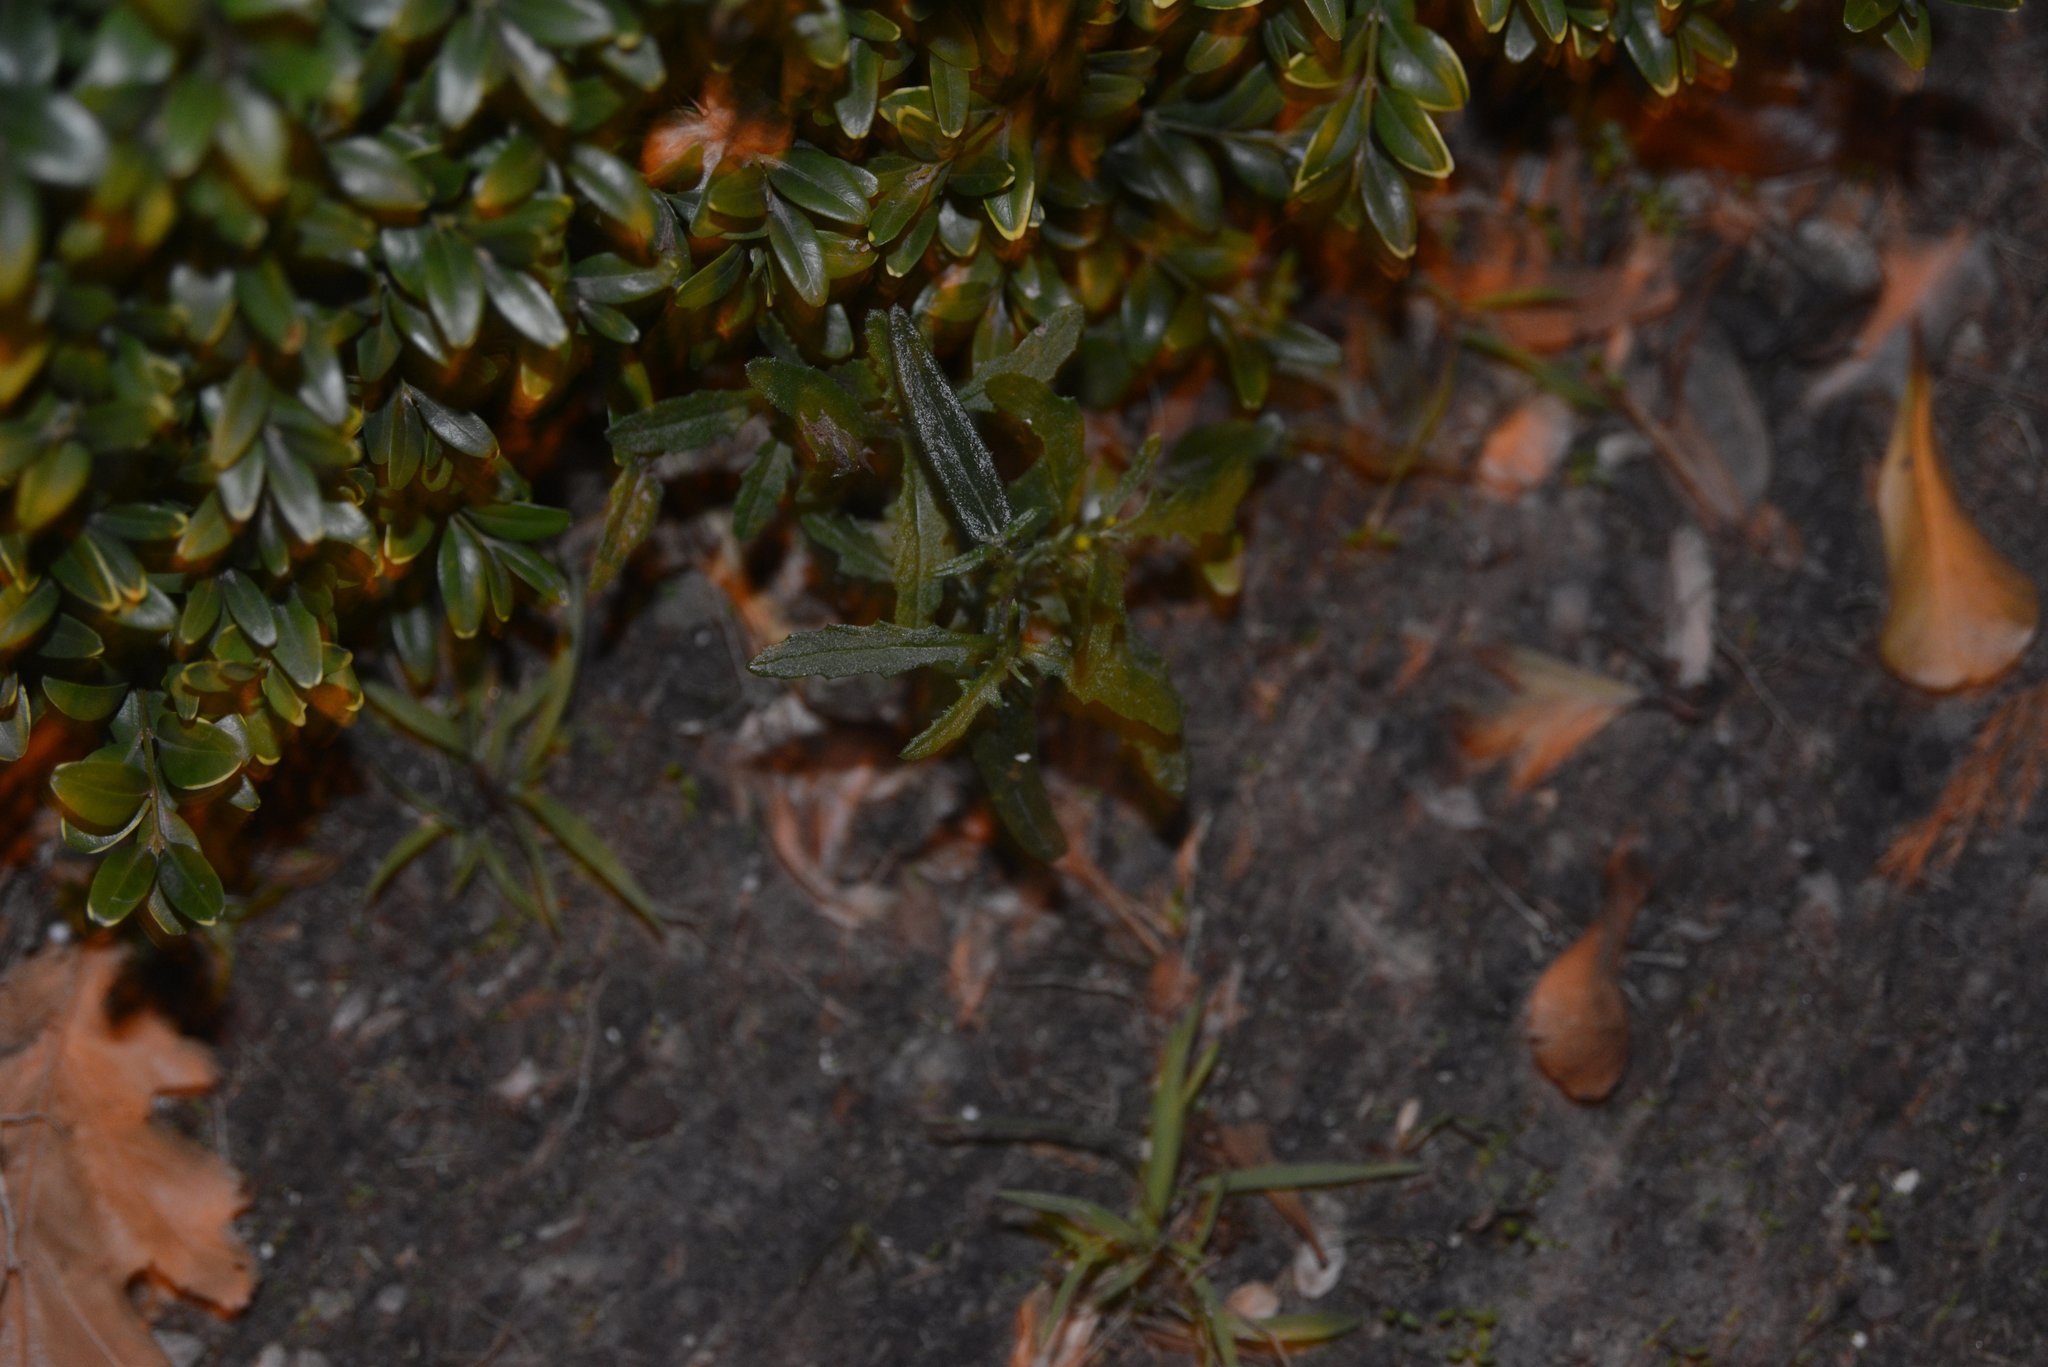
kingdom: Plantae
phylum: Tracheophyta
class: Magnoliopsida
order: Asterales
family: Asteraceae
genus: Senecio
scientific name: Senecio hispidulus
